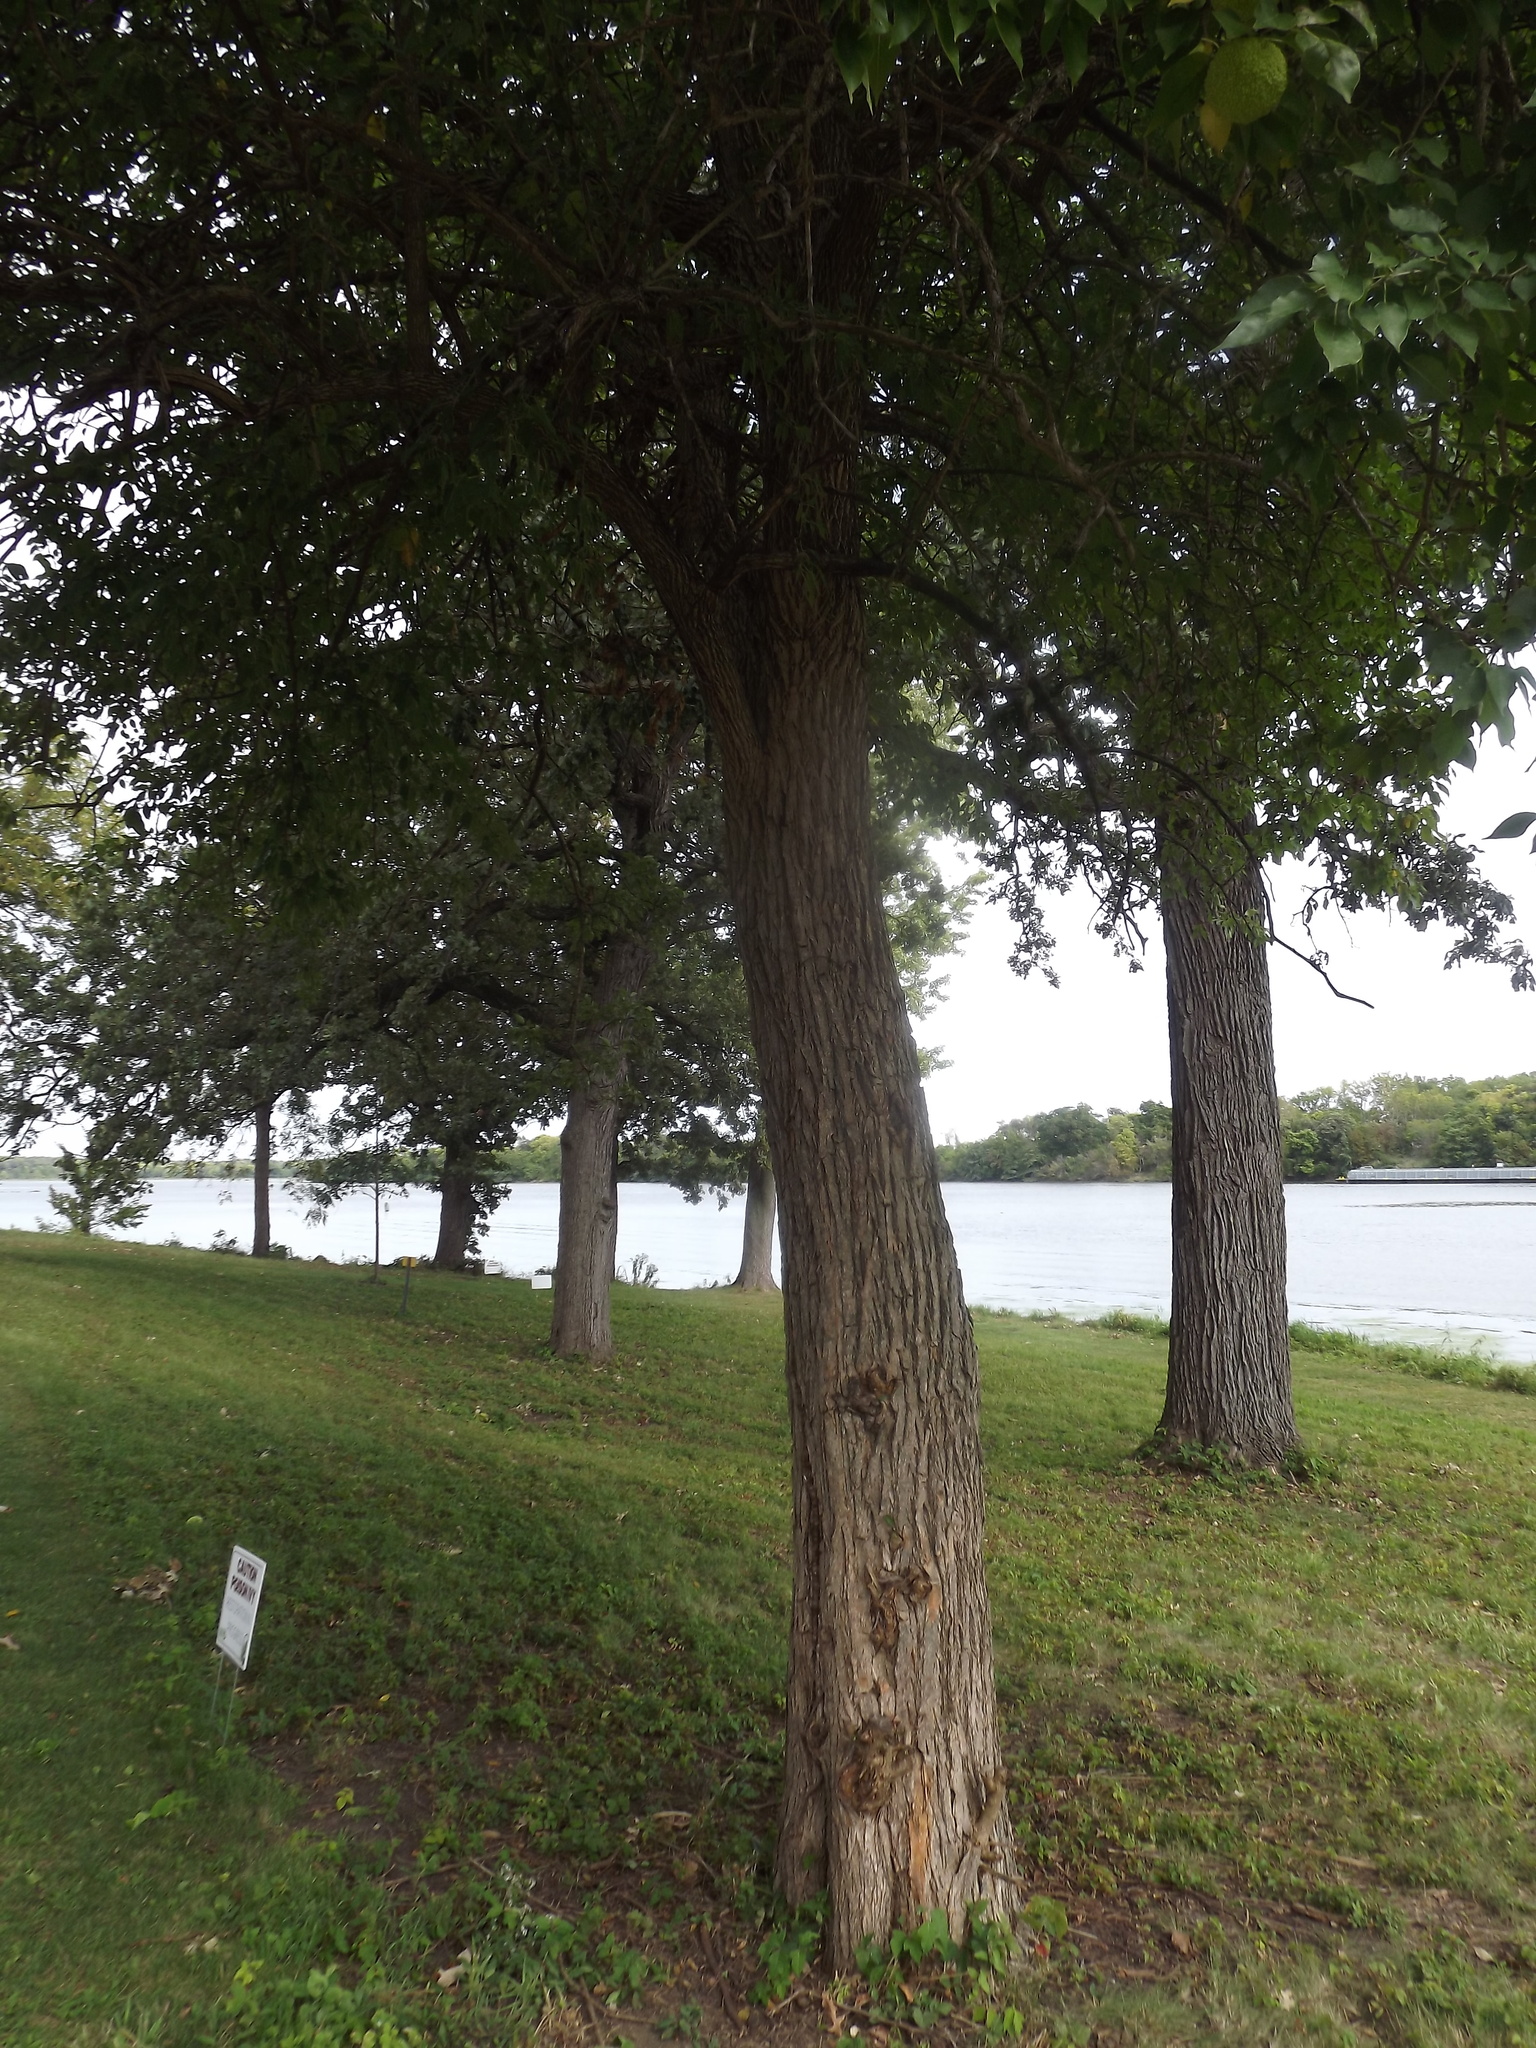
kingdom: Plantae
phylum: Tracheophyta
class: Magnoliopsida
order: Rosales
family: Moraceae
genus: Maclura
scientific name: Maclura pomifera
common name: Osage-orange
